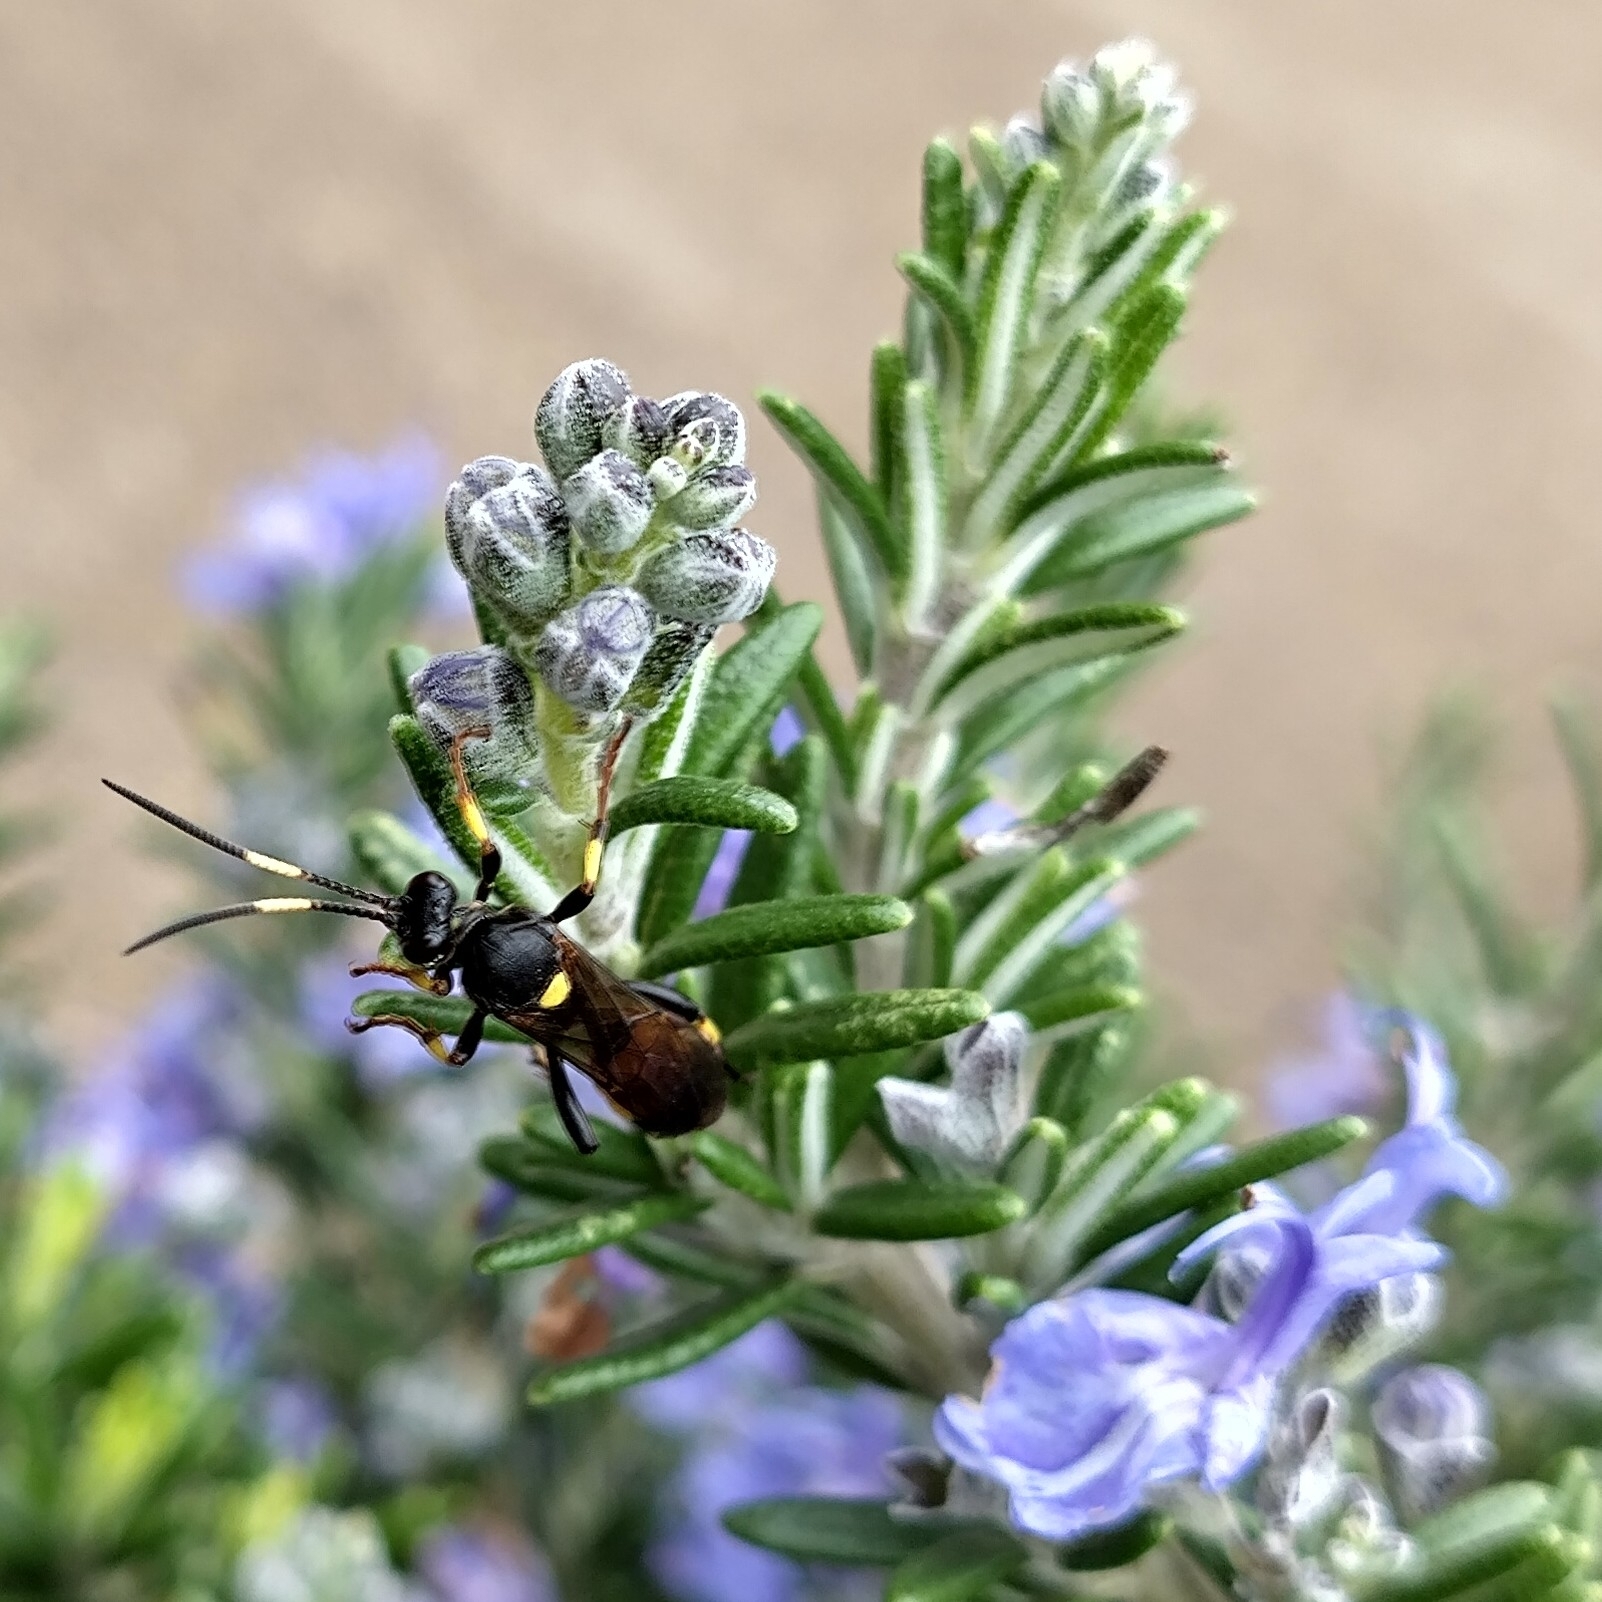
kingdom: Animalia
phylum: Arthropoda
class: Insecta
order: Hymenoptera
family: Ichneumonidae
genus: Ichneumon
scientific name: Ichneumon stramentor
